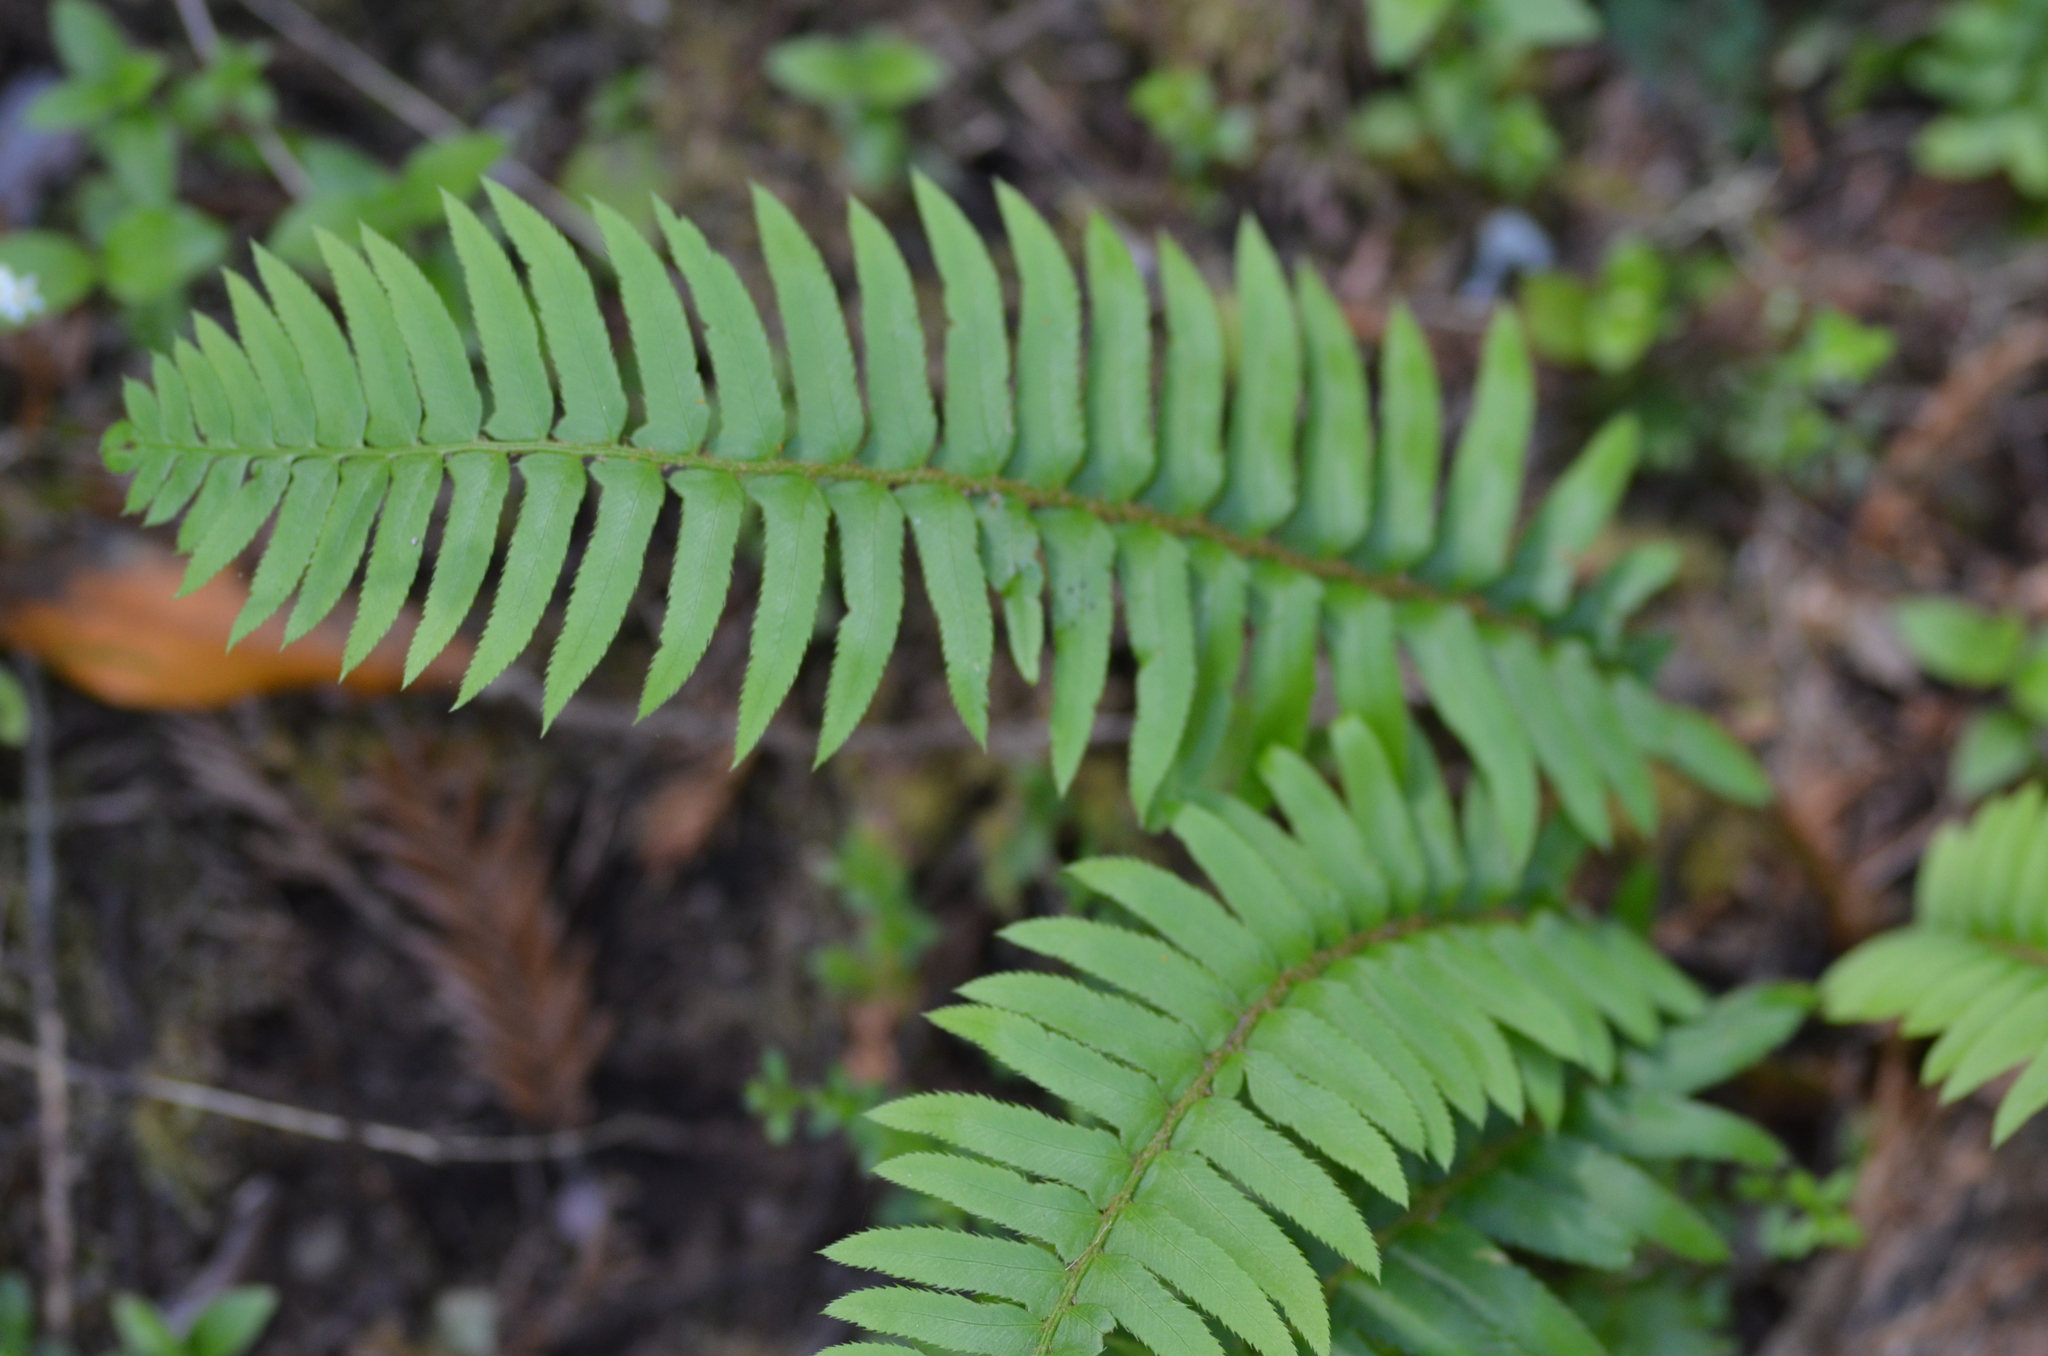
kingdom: Plantae
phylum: Tracheophyta
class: Polypodiopsida
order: Polypodiales
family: Dryopteridaceae
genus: Polystichum
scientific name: Polystichum munitum
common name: Western sword-fern
